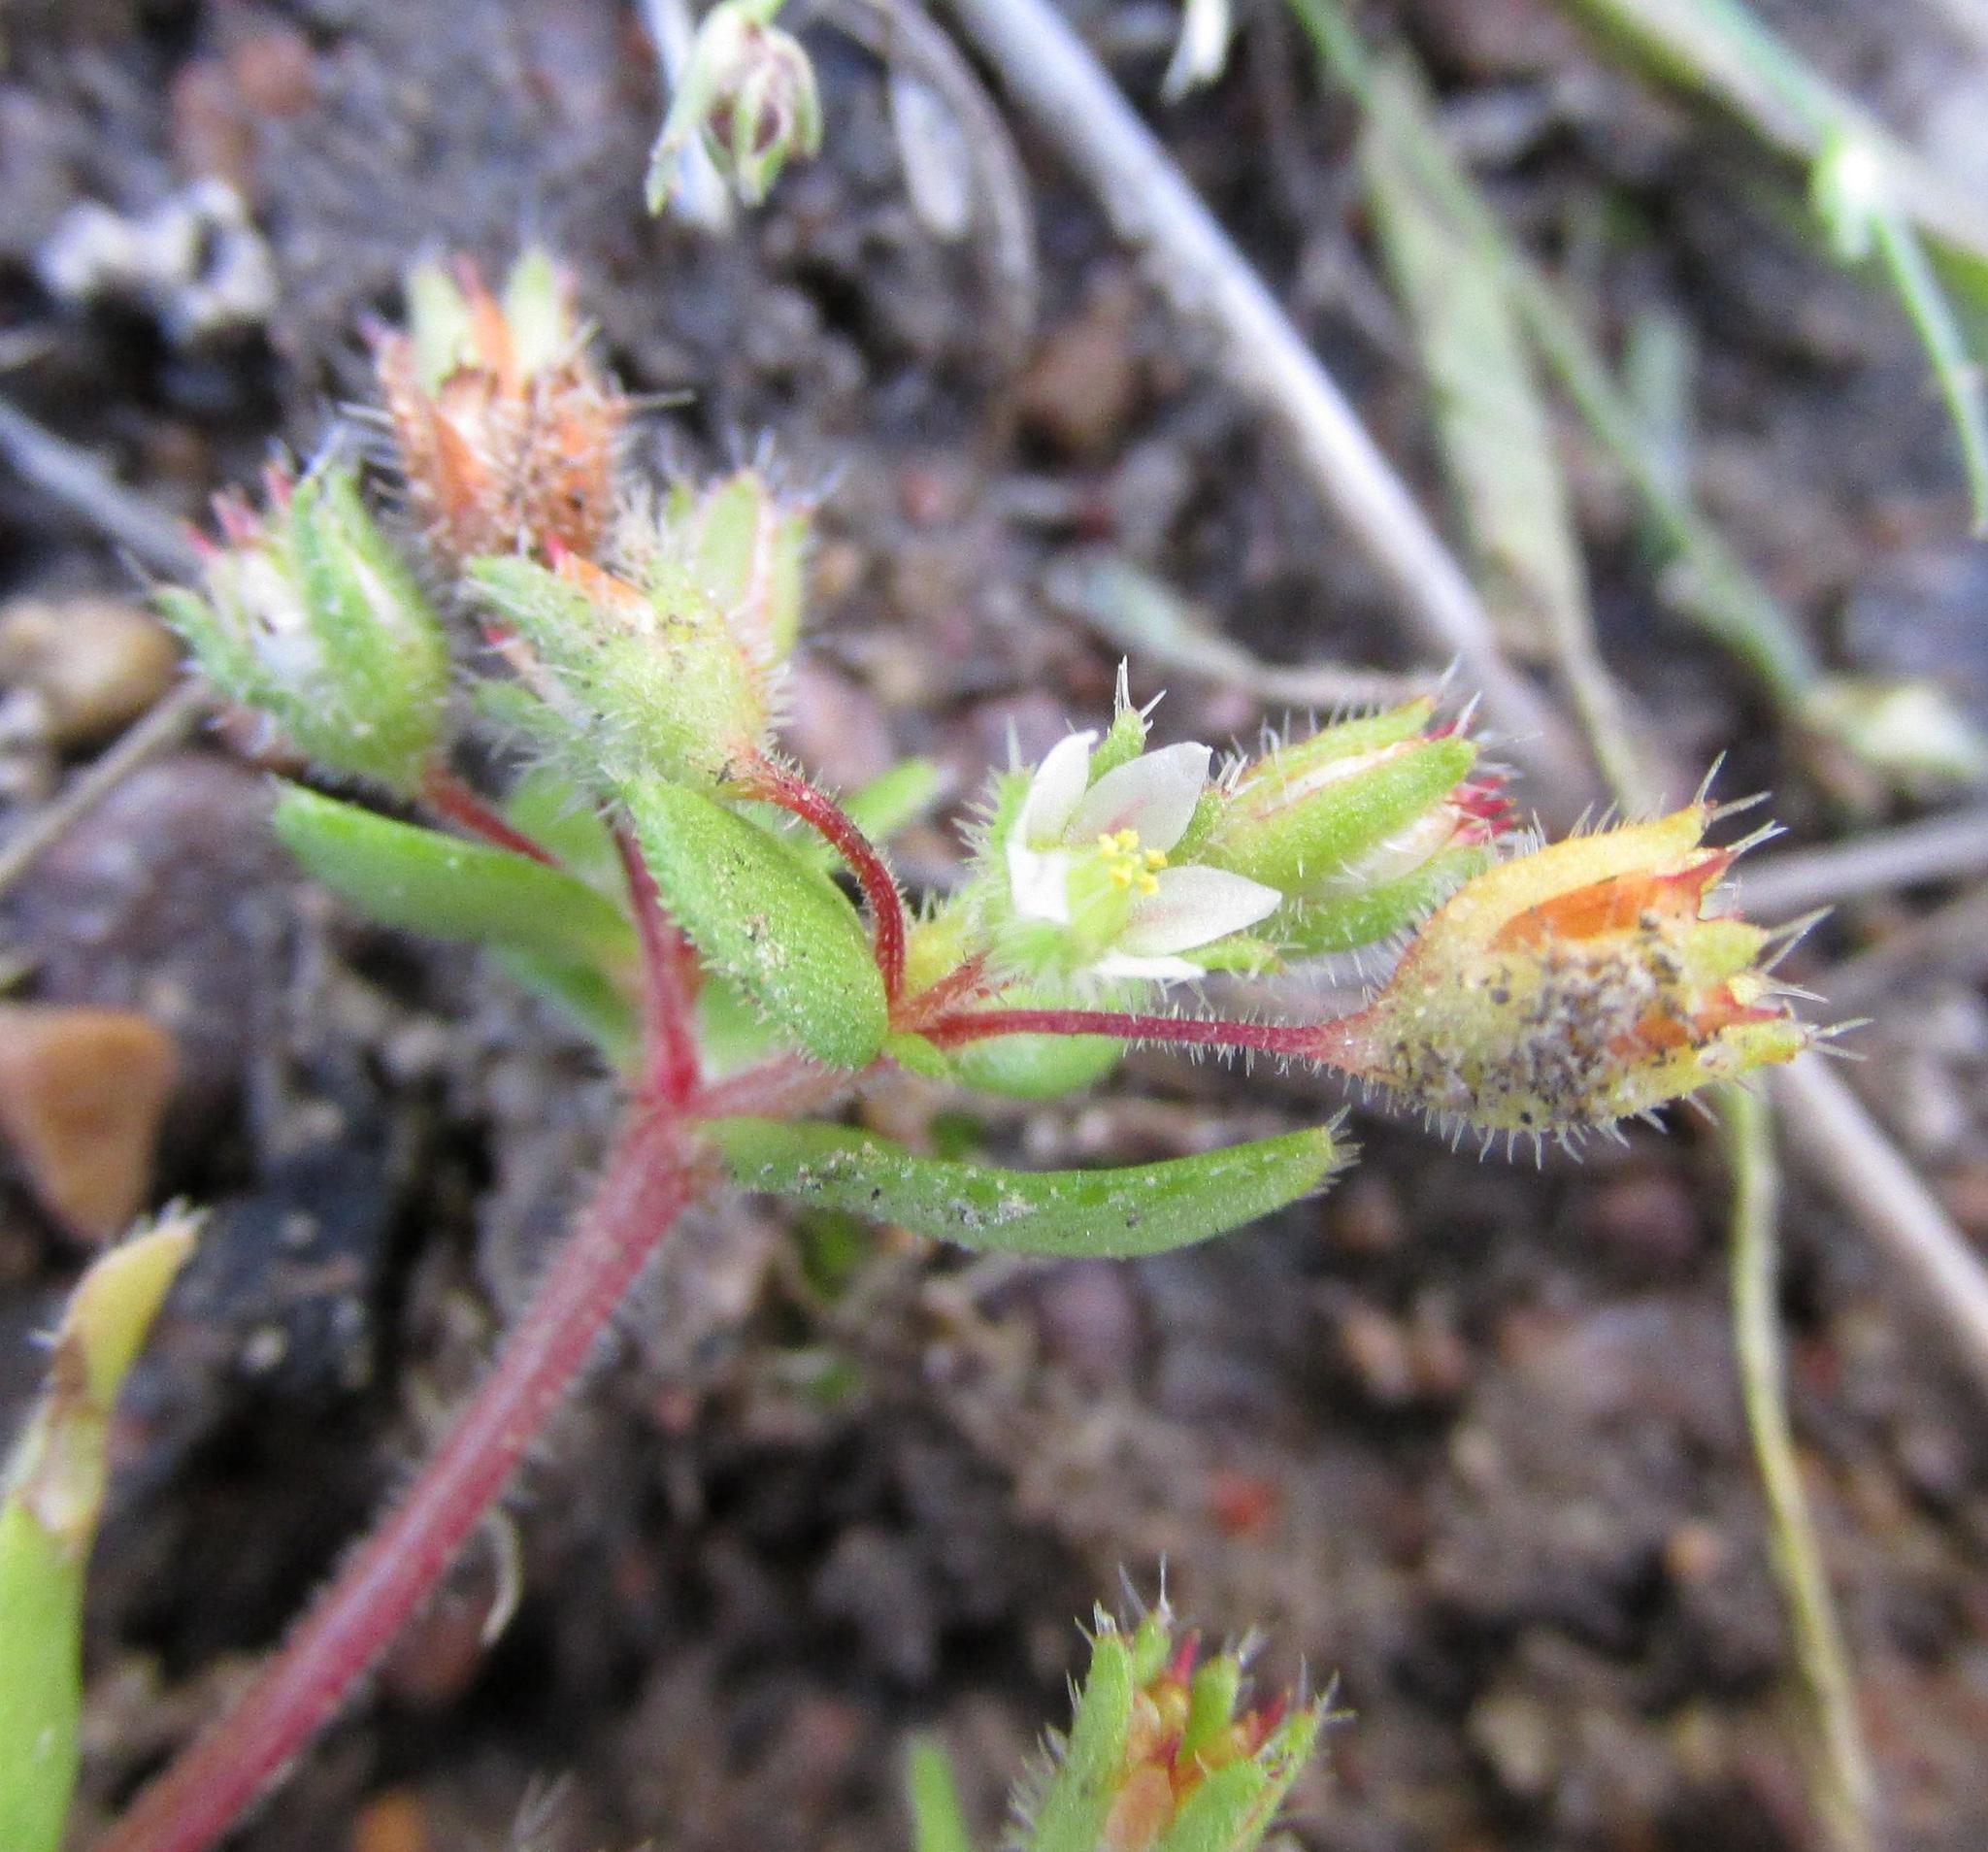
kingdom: Plantae
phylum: Tracheophyta
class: Magnoliopsida
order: Saxifragales
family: Crassulaceae
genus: Crassula
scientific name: Crassula strigosa
